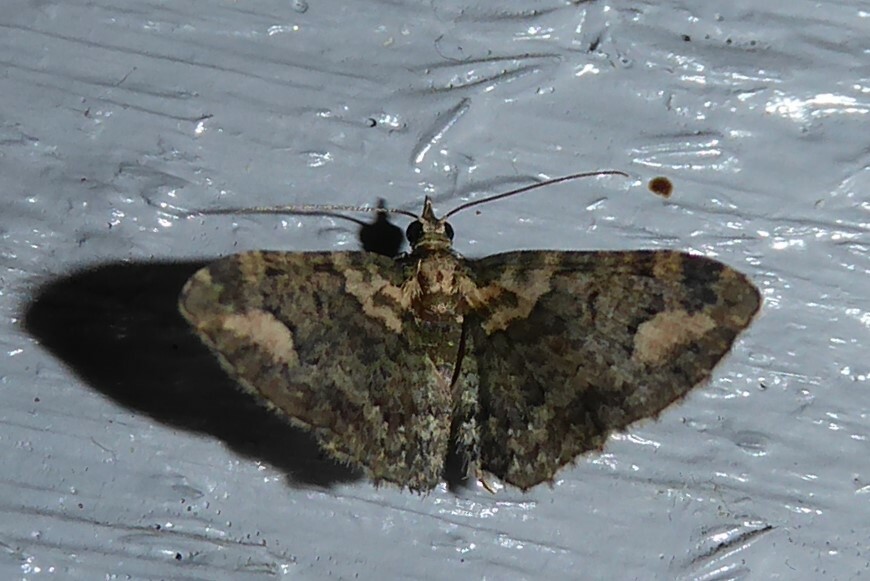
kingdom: Animalia
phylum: Arthropoda
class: Insecta
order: Lepidoptera
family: Geometridae
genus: Pasiphilodes
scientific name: Pasiphilodes testulata
